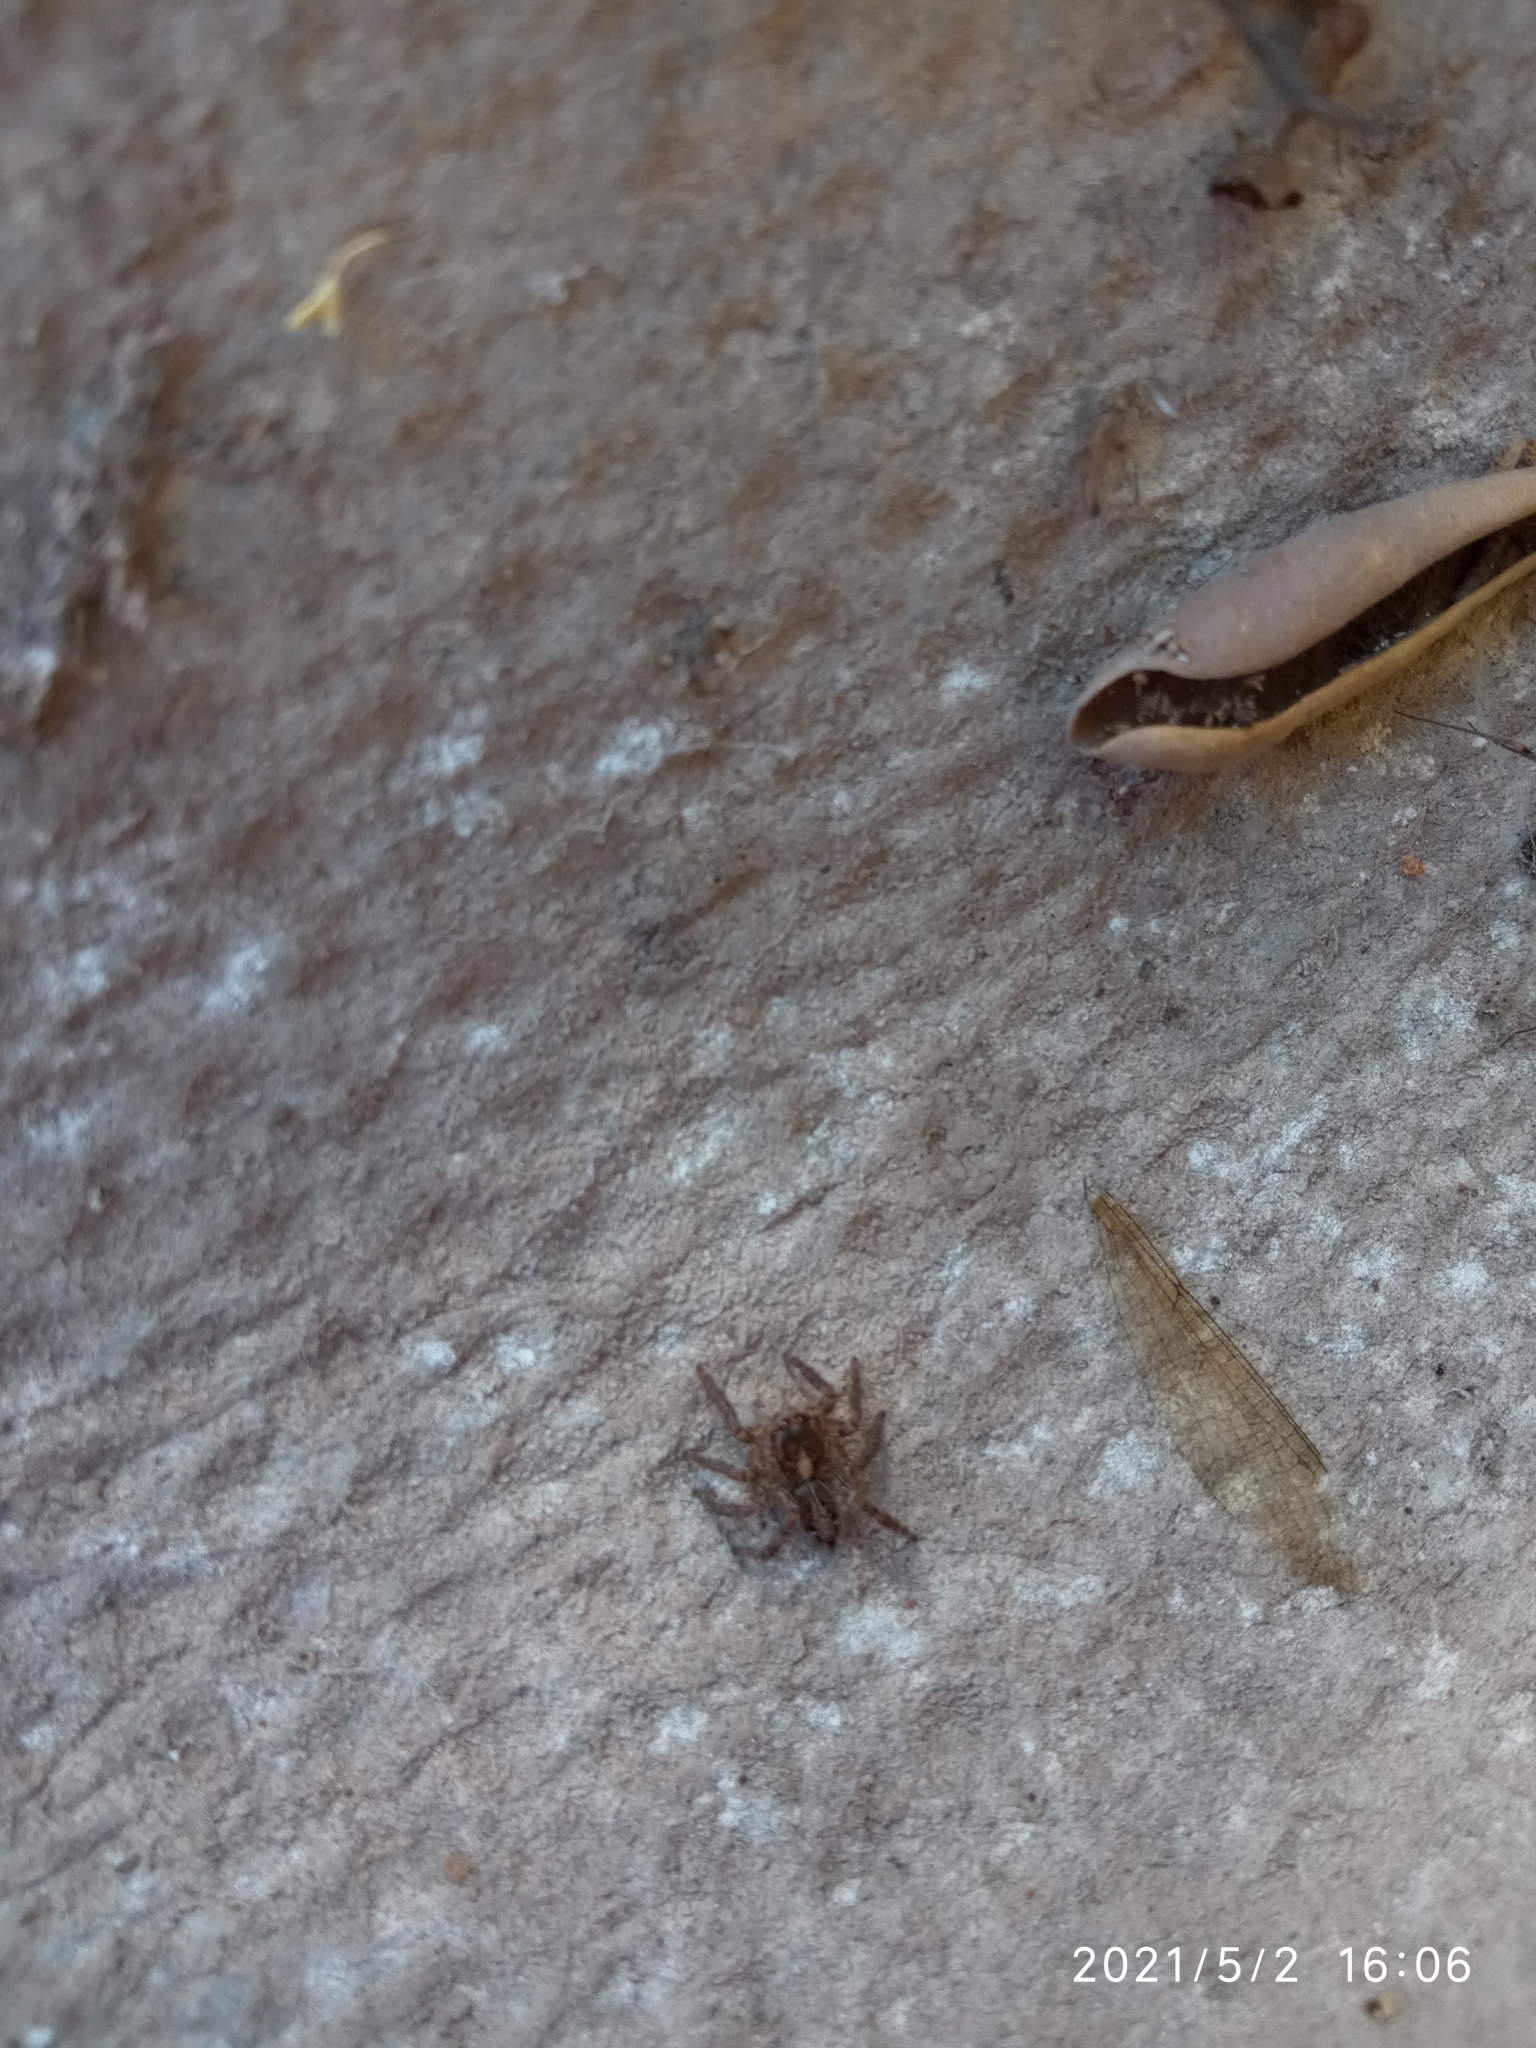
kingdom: Animalia
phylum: Arthropoda
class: Arachnida
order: Araneae
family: Salticidae
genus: Plexippus
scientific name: Plexippus paykulli
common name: Pantropical jumper
